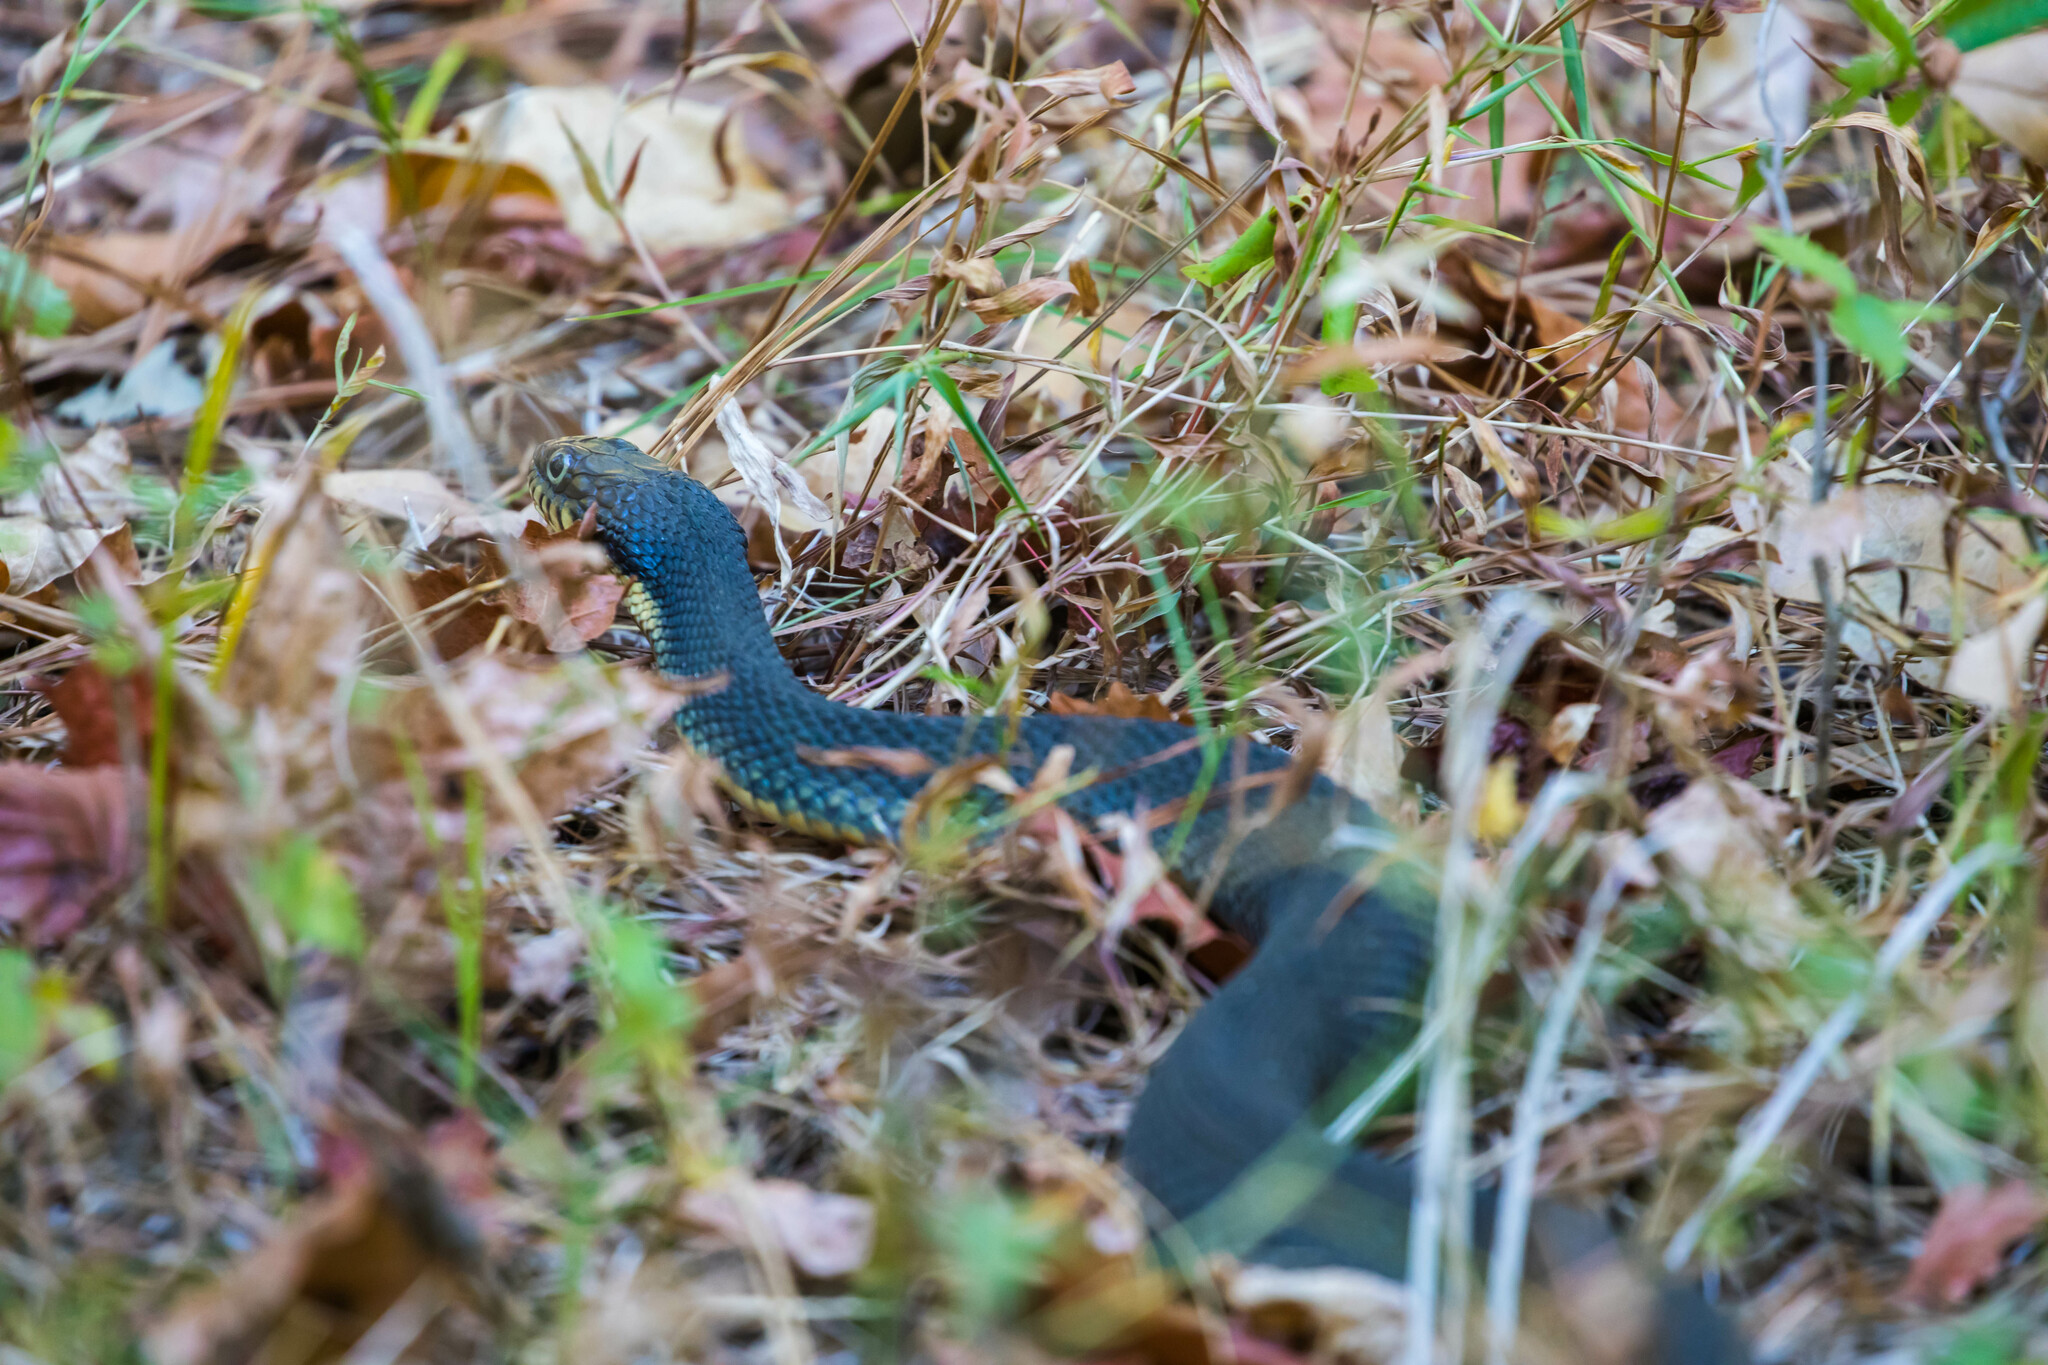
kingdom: Animalia
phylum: Chordata
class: Squamata
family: Colubridae
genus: Nerodia
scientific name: Nerodia erythrogaster
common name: Plainbelly water snake
